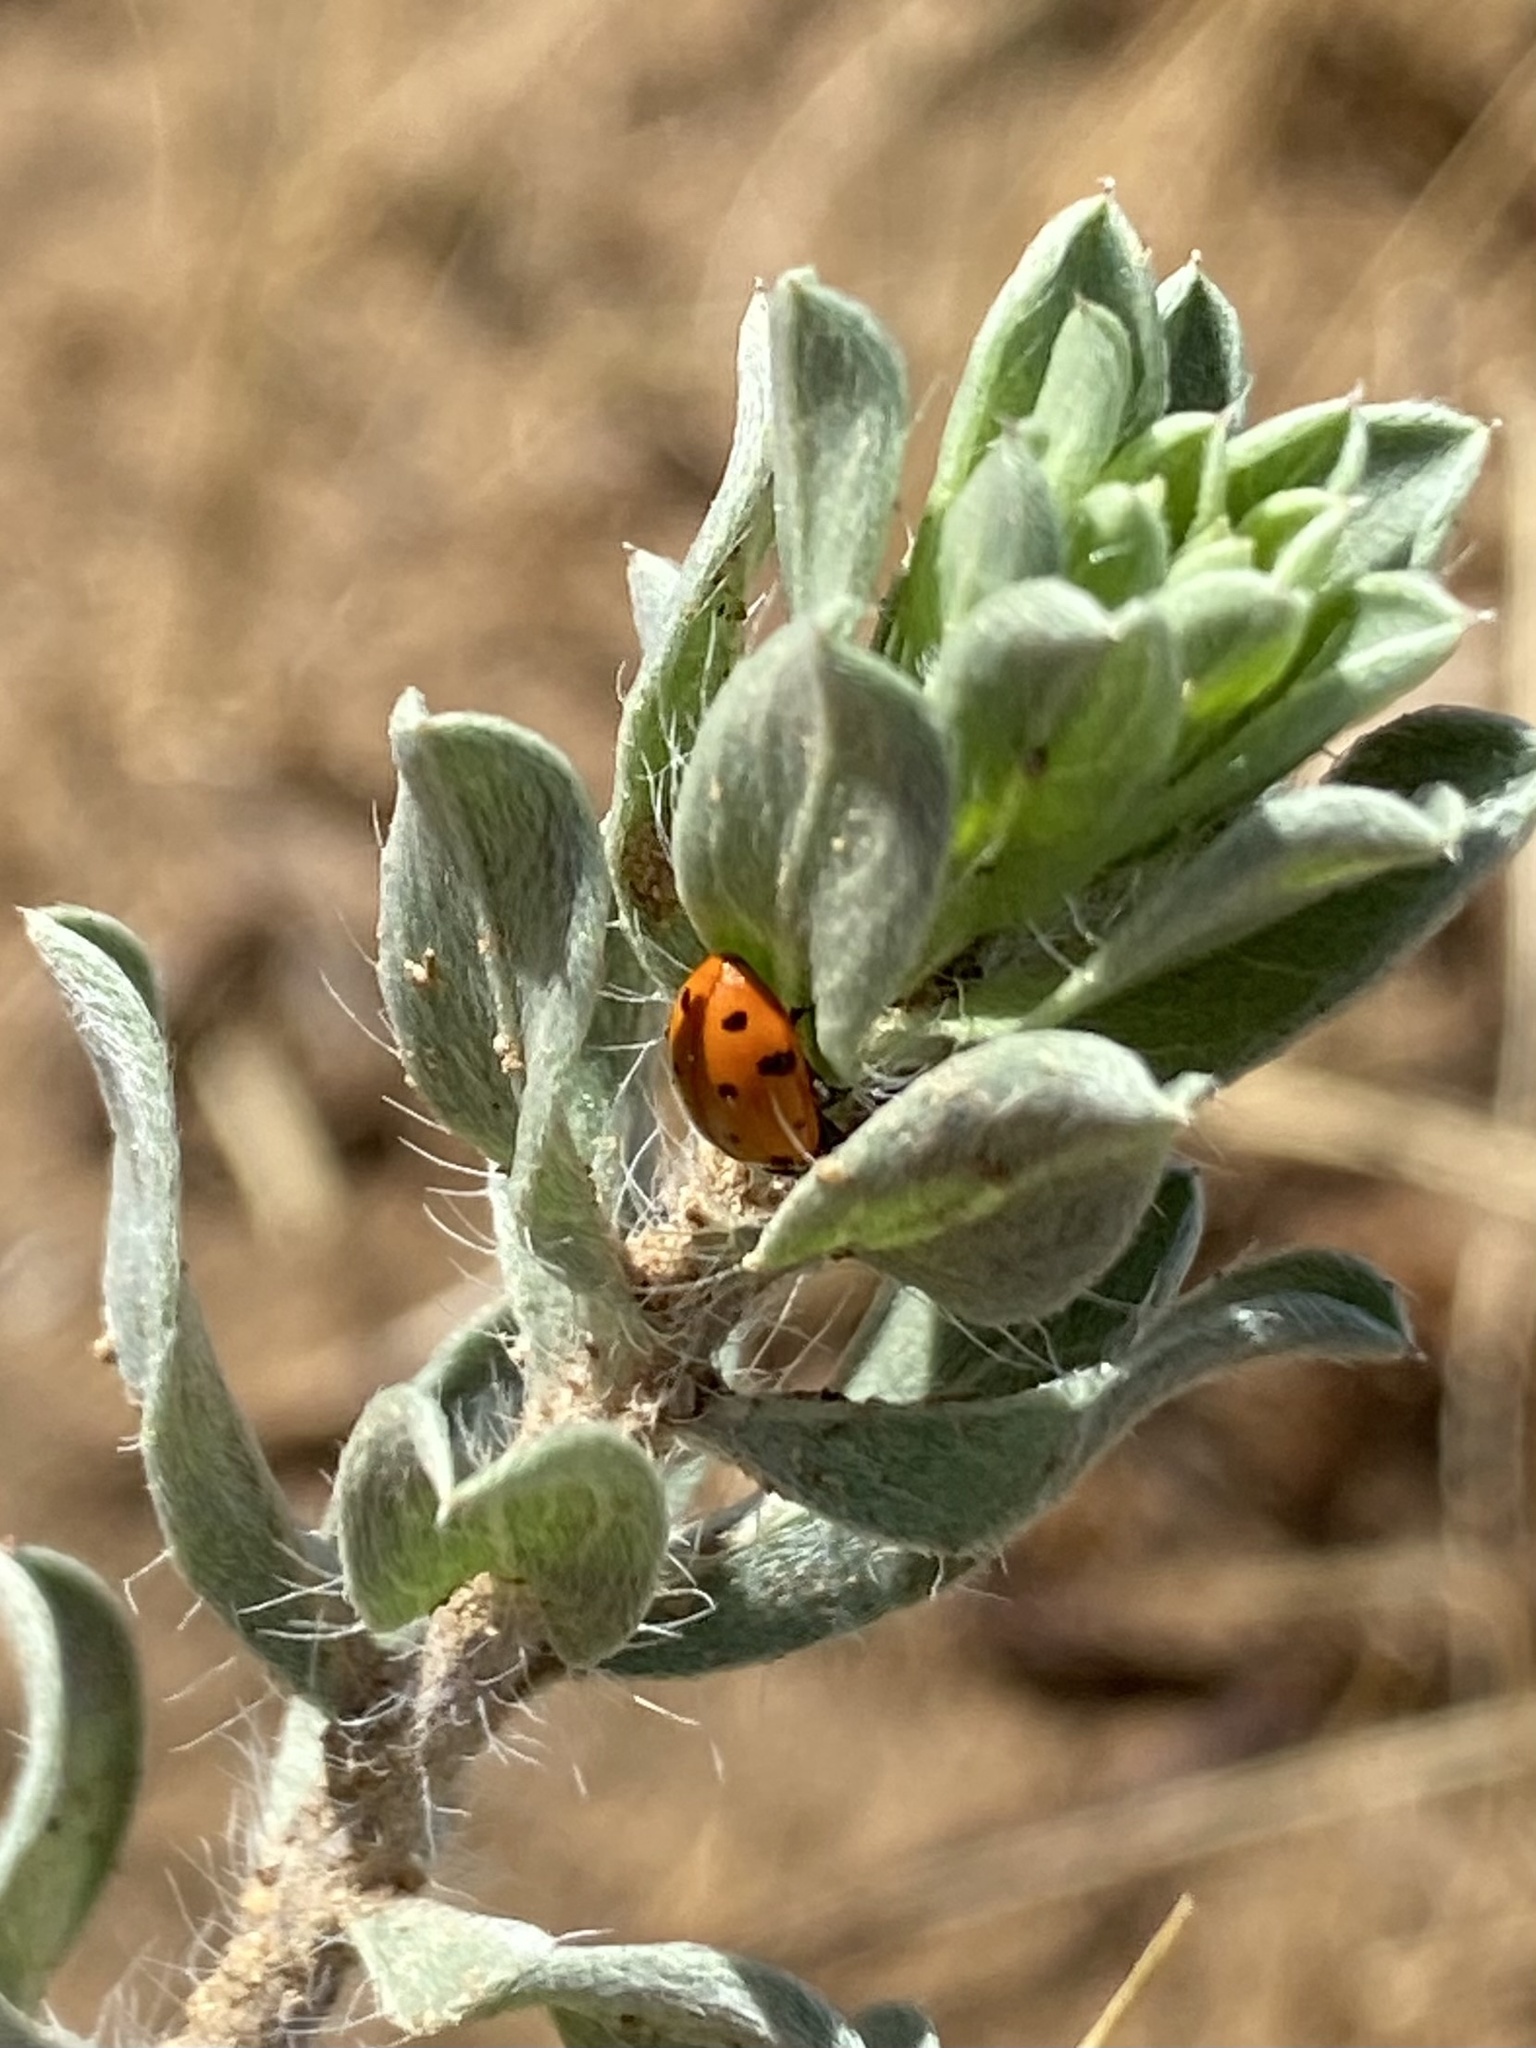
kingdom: Animalia
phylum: Arthropoda
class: Insecta
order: Coleoptera
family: Coccinellidae
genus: Hippodamia
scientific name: Hippodamia convergens
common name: Convergent lady beetle
